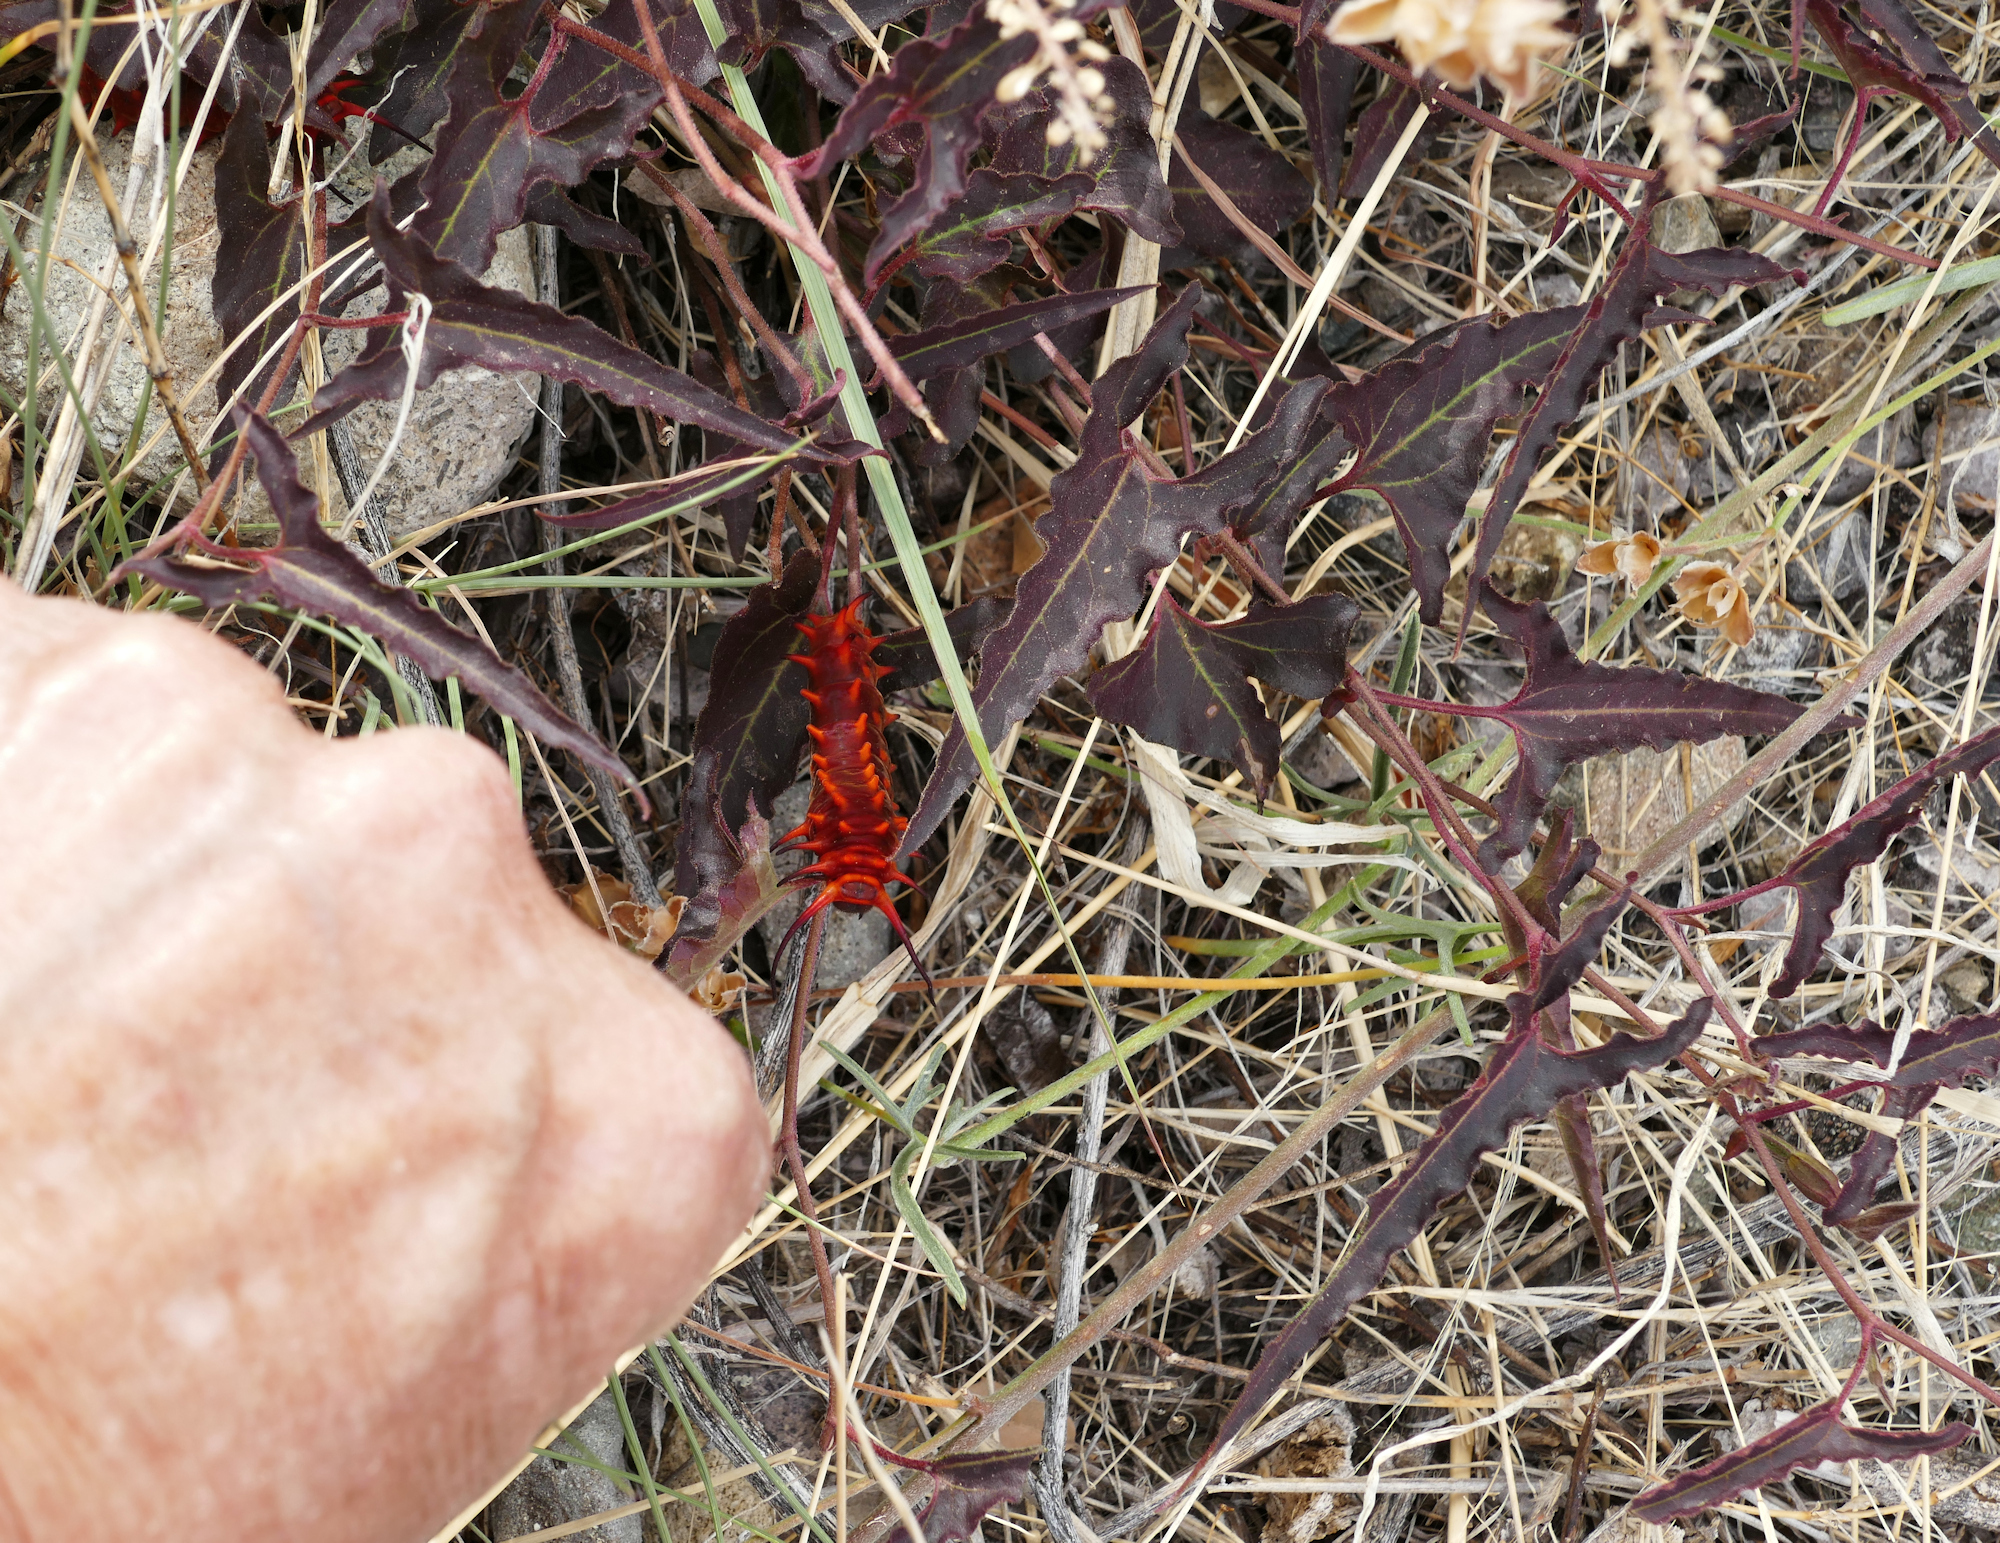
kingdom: Animalia
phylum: Arthropoda
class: Insecta
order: Lepidoptera
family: Papilionidae
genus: Battus
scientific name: Battus philenor
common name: Pipevine swallowtail
